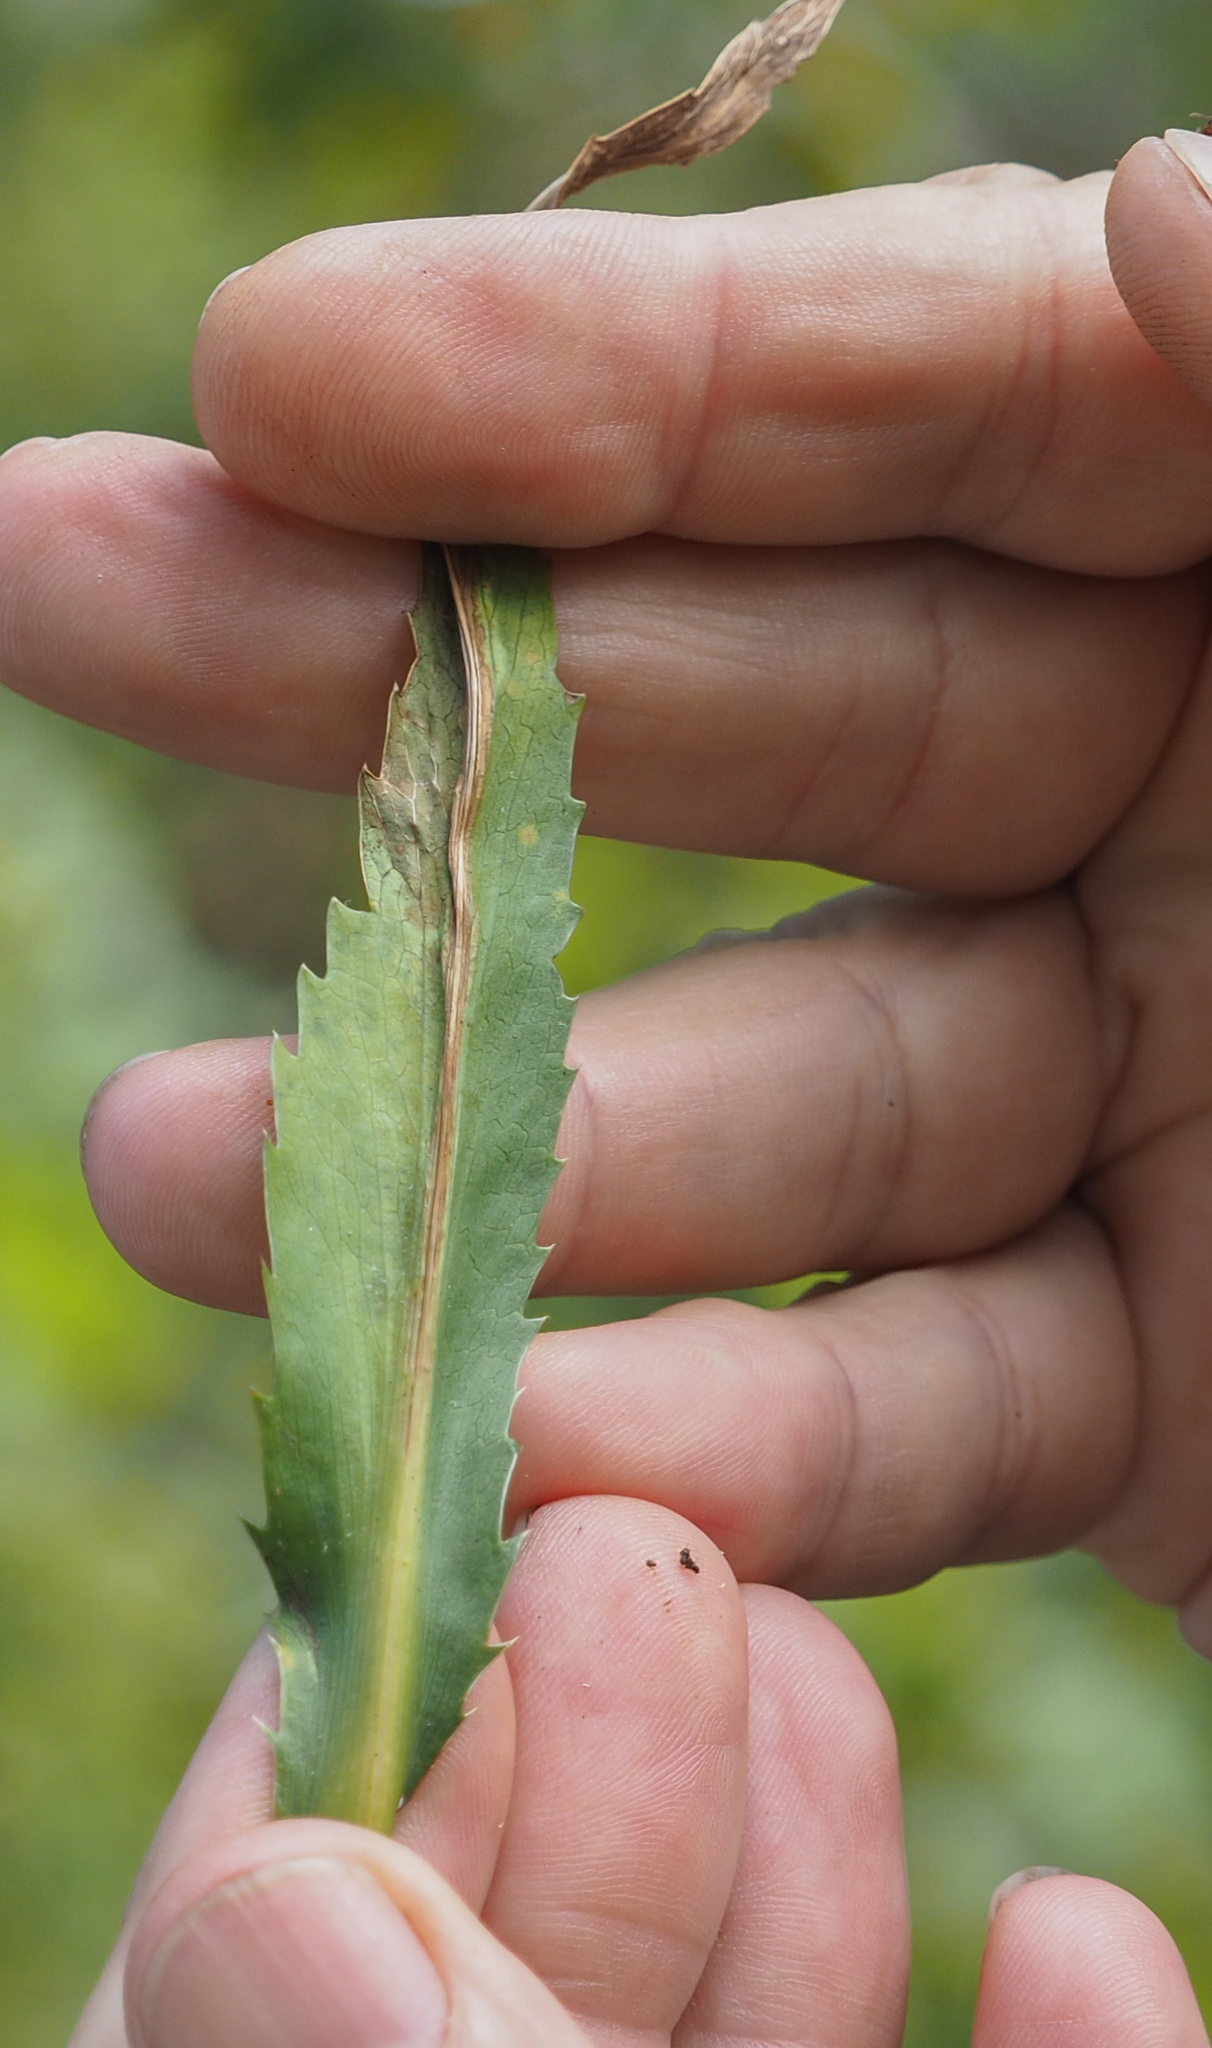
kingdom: Plantae
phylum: Tracheophyta
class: Magnoliopsida
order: Apiales
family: Apiaceae
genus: Eryngium
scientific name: Eryngium aquaticum
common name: Water eryngo
